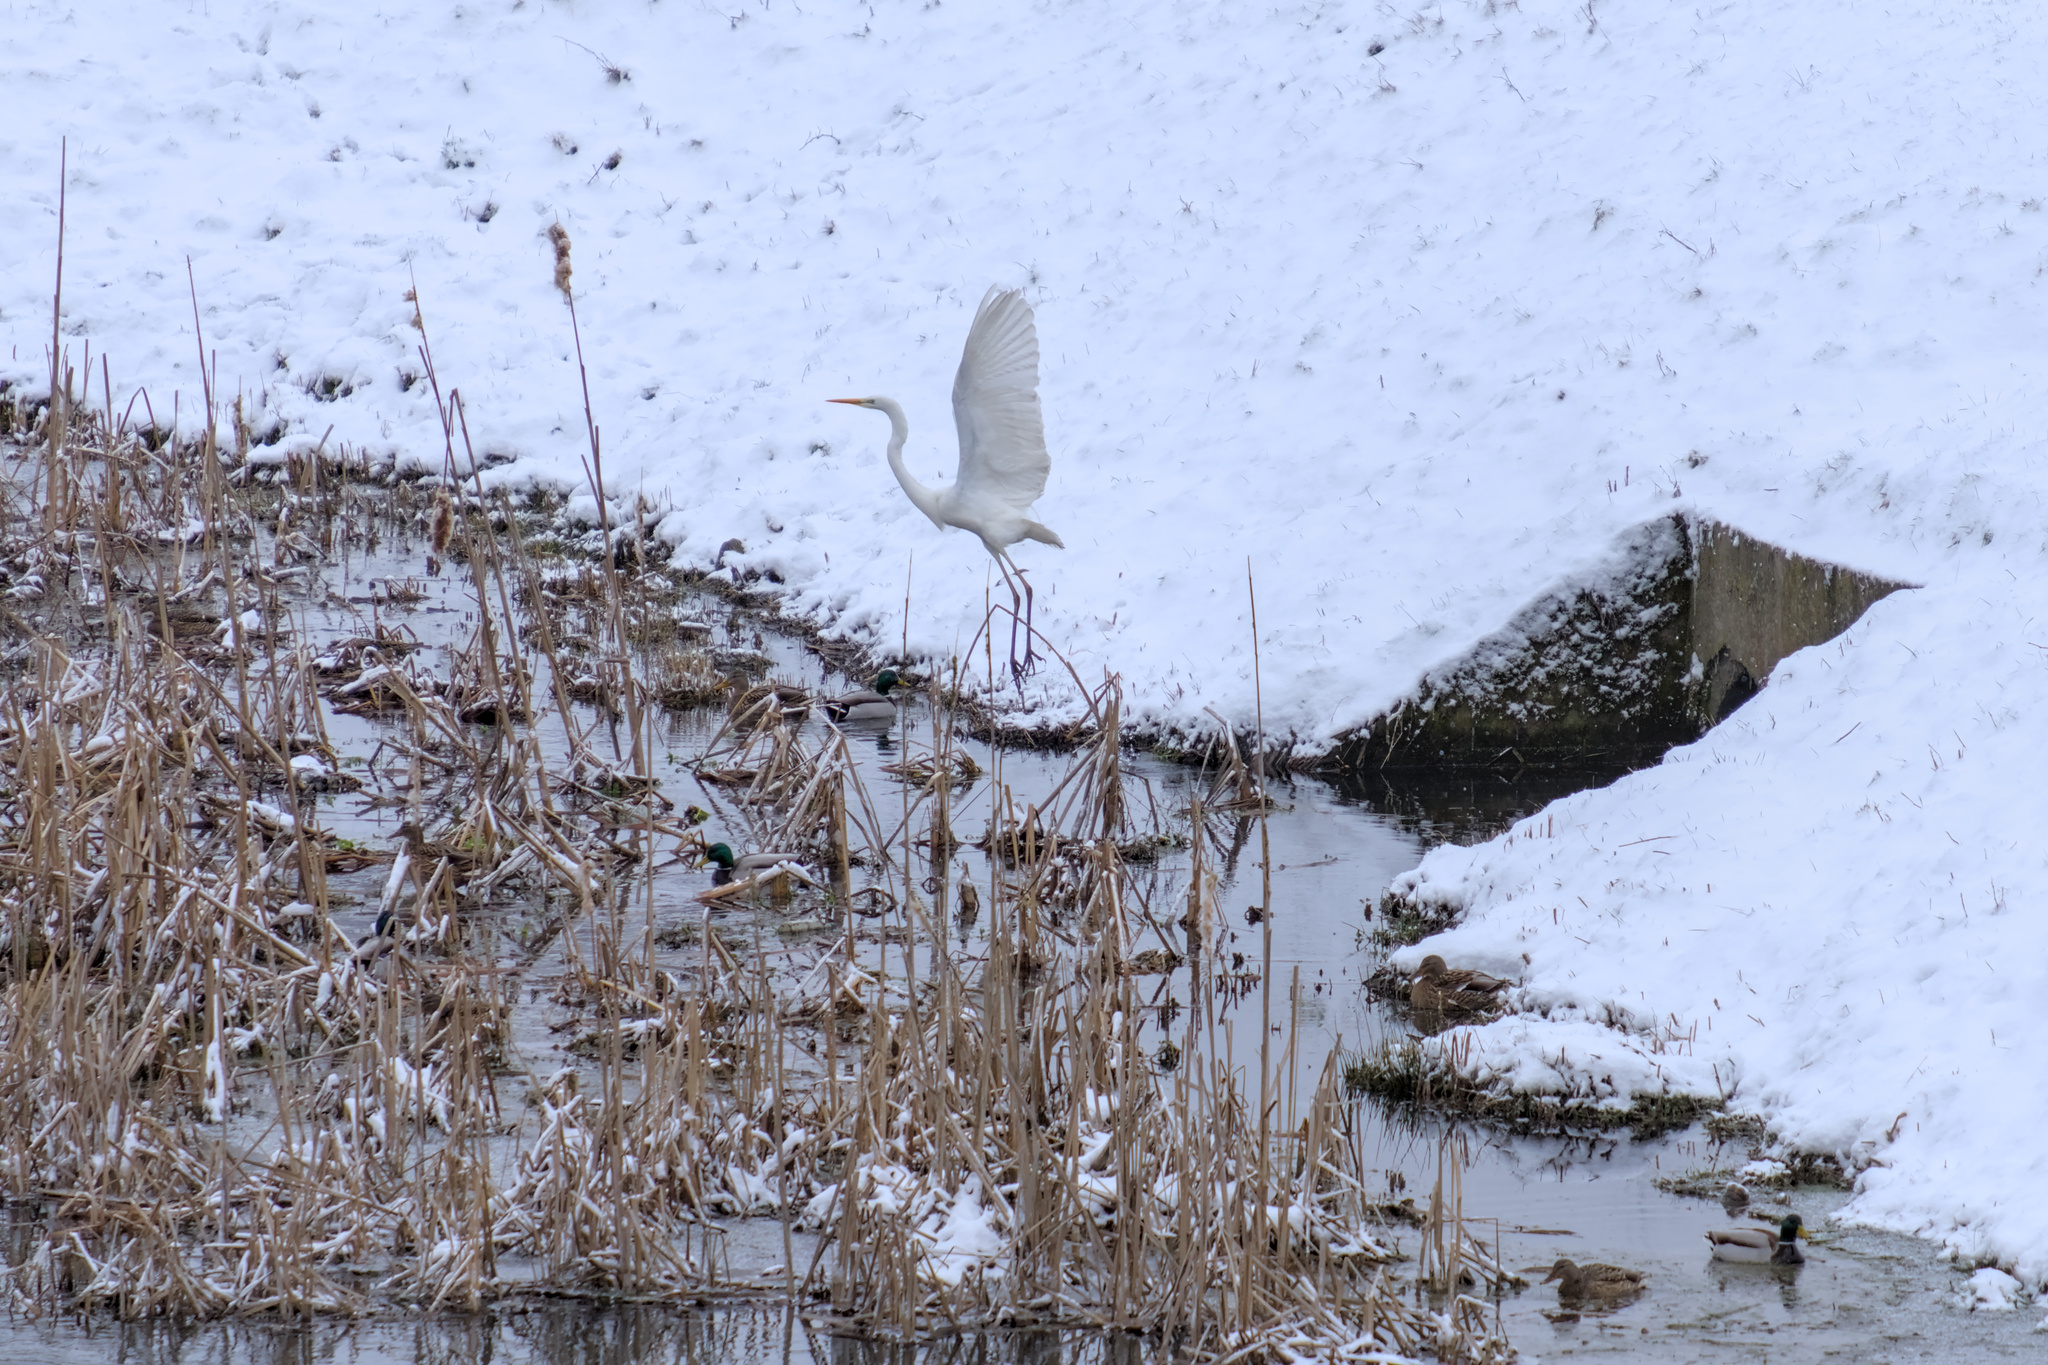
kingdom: Animalia
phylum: Chordata
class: Aves
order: Pelecaniformes
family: Ardeidae
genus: Ardea
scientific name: Ardea alba
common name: Great egret
